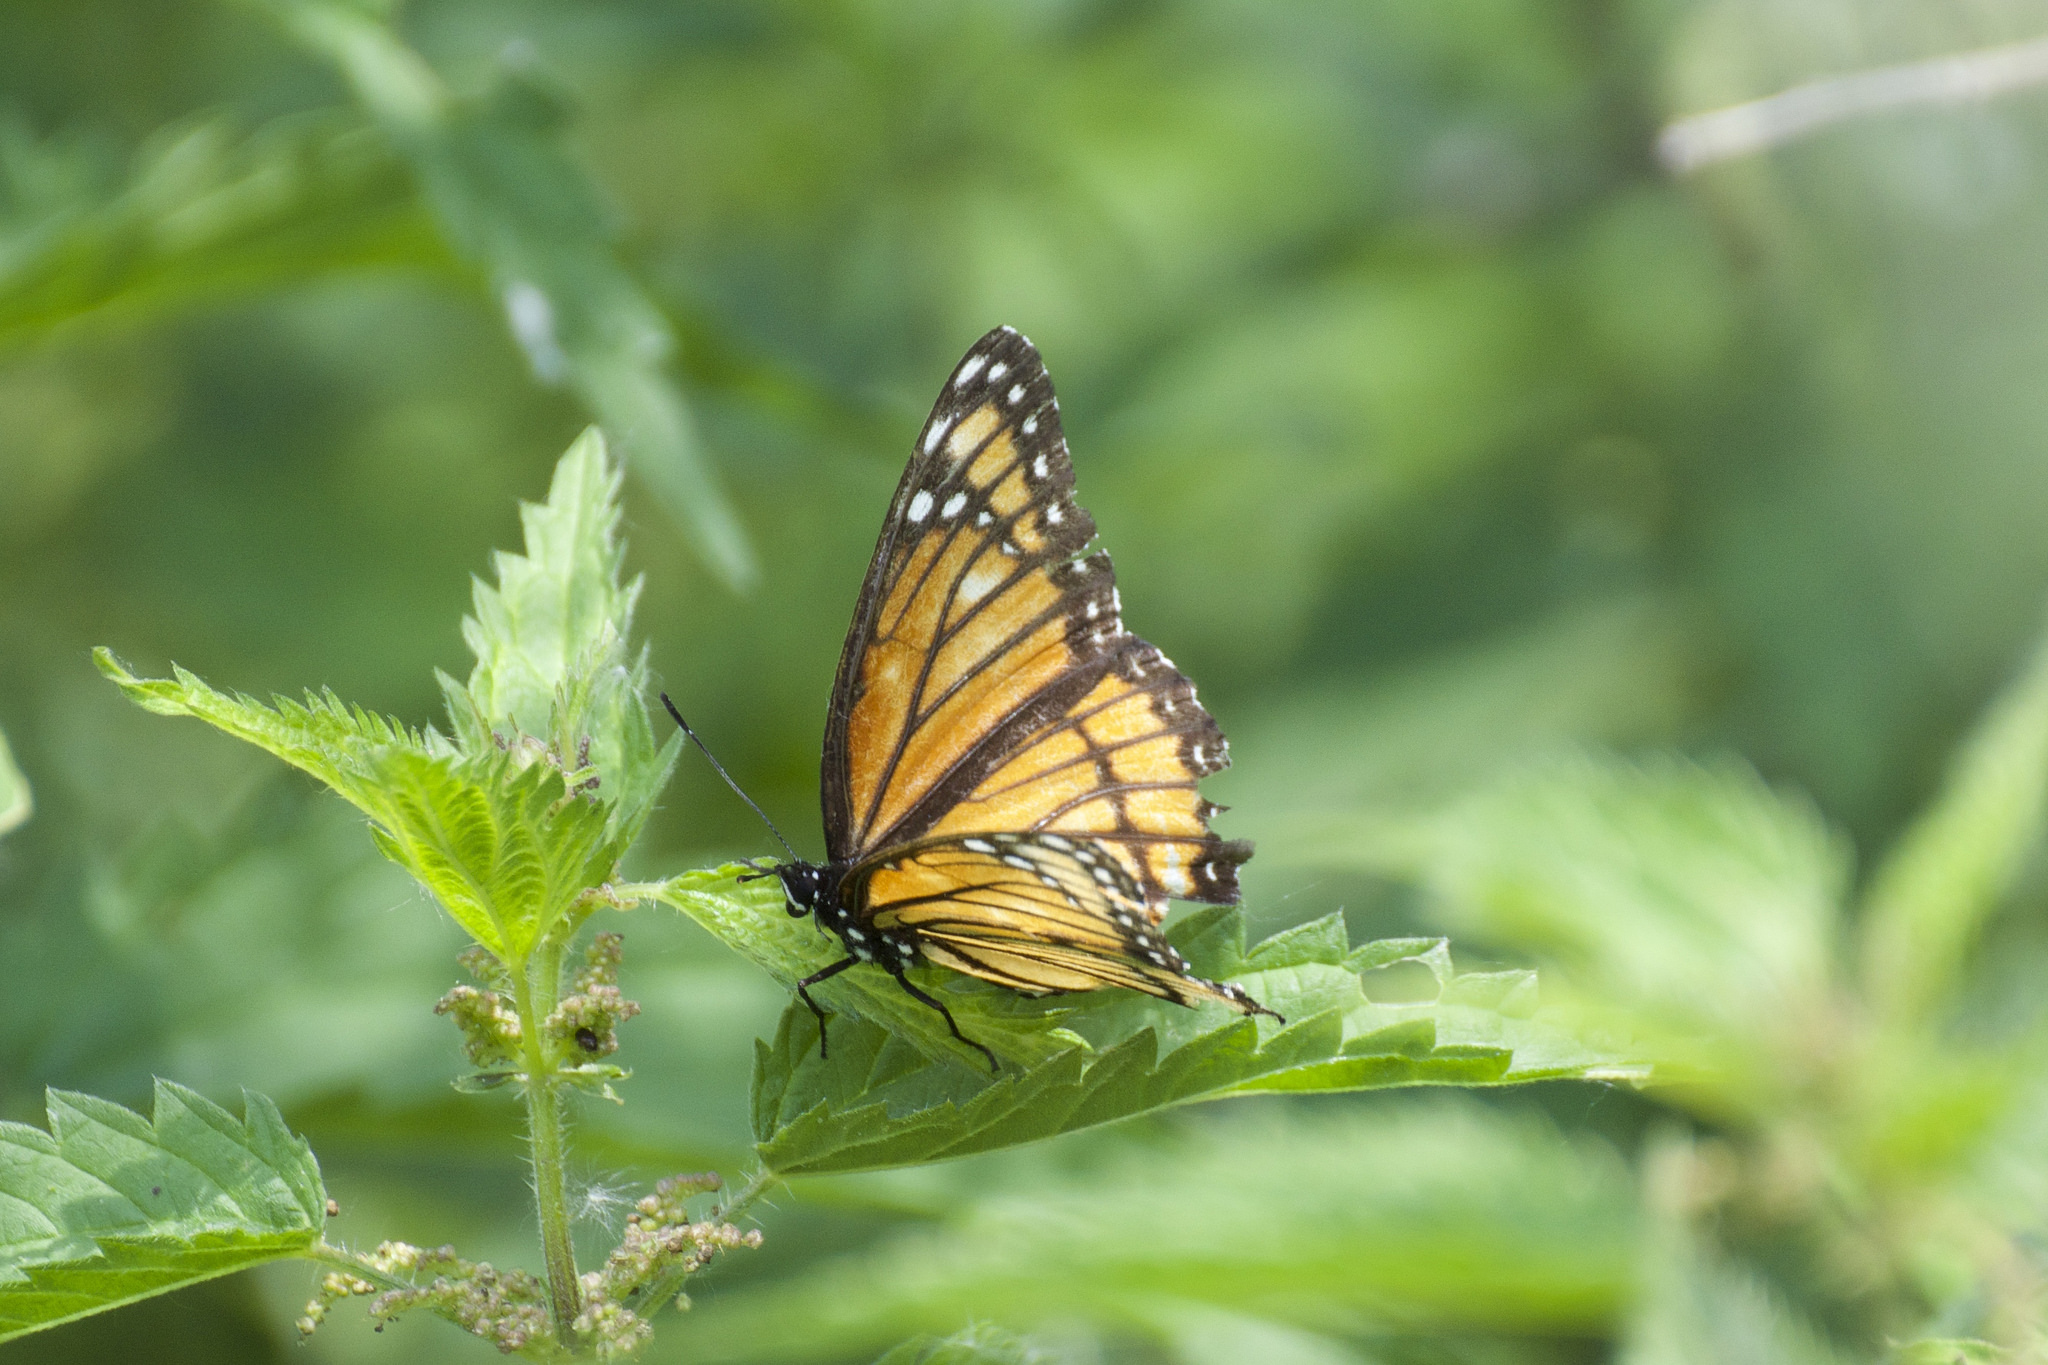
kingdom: Animalia
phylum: Arthropoda
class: Insecta
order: Lepidoptera
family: Nymphalidae
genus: Limenitis
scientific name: Limenitis archippus
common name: Viceroy
